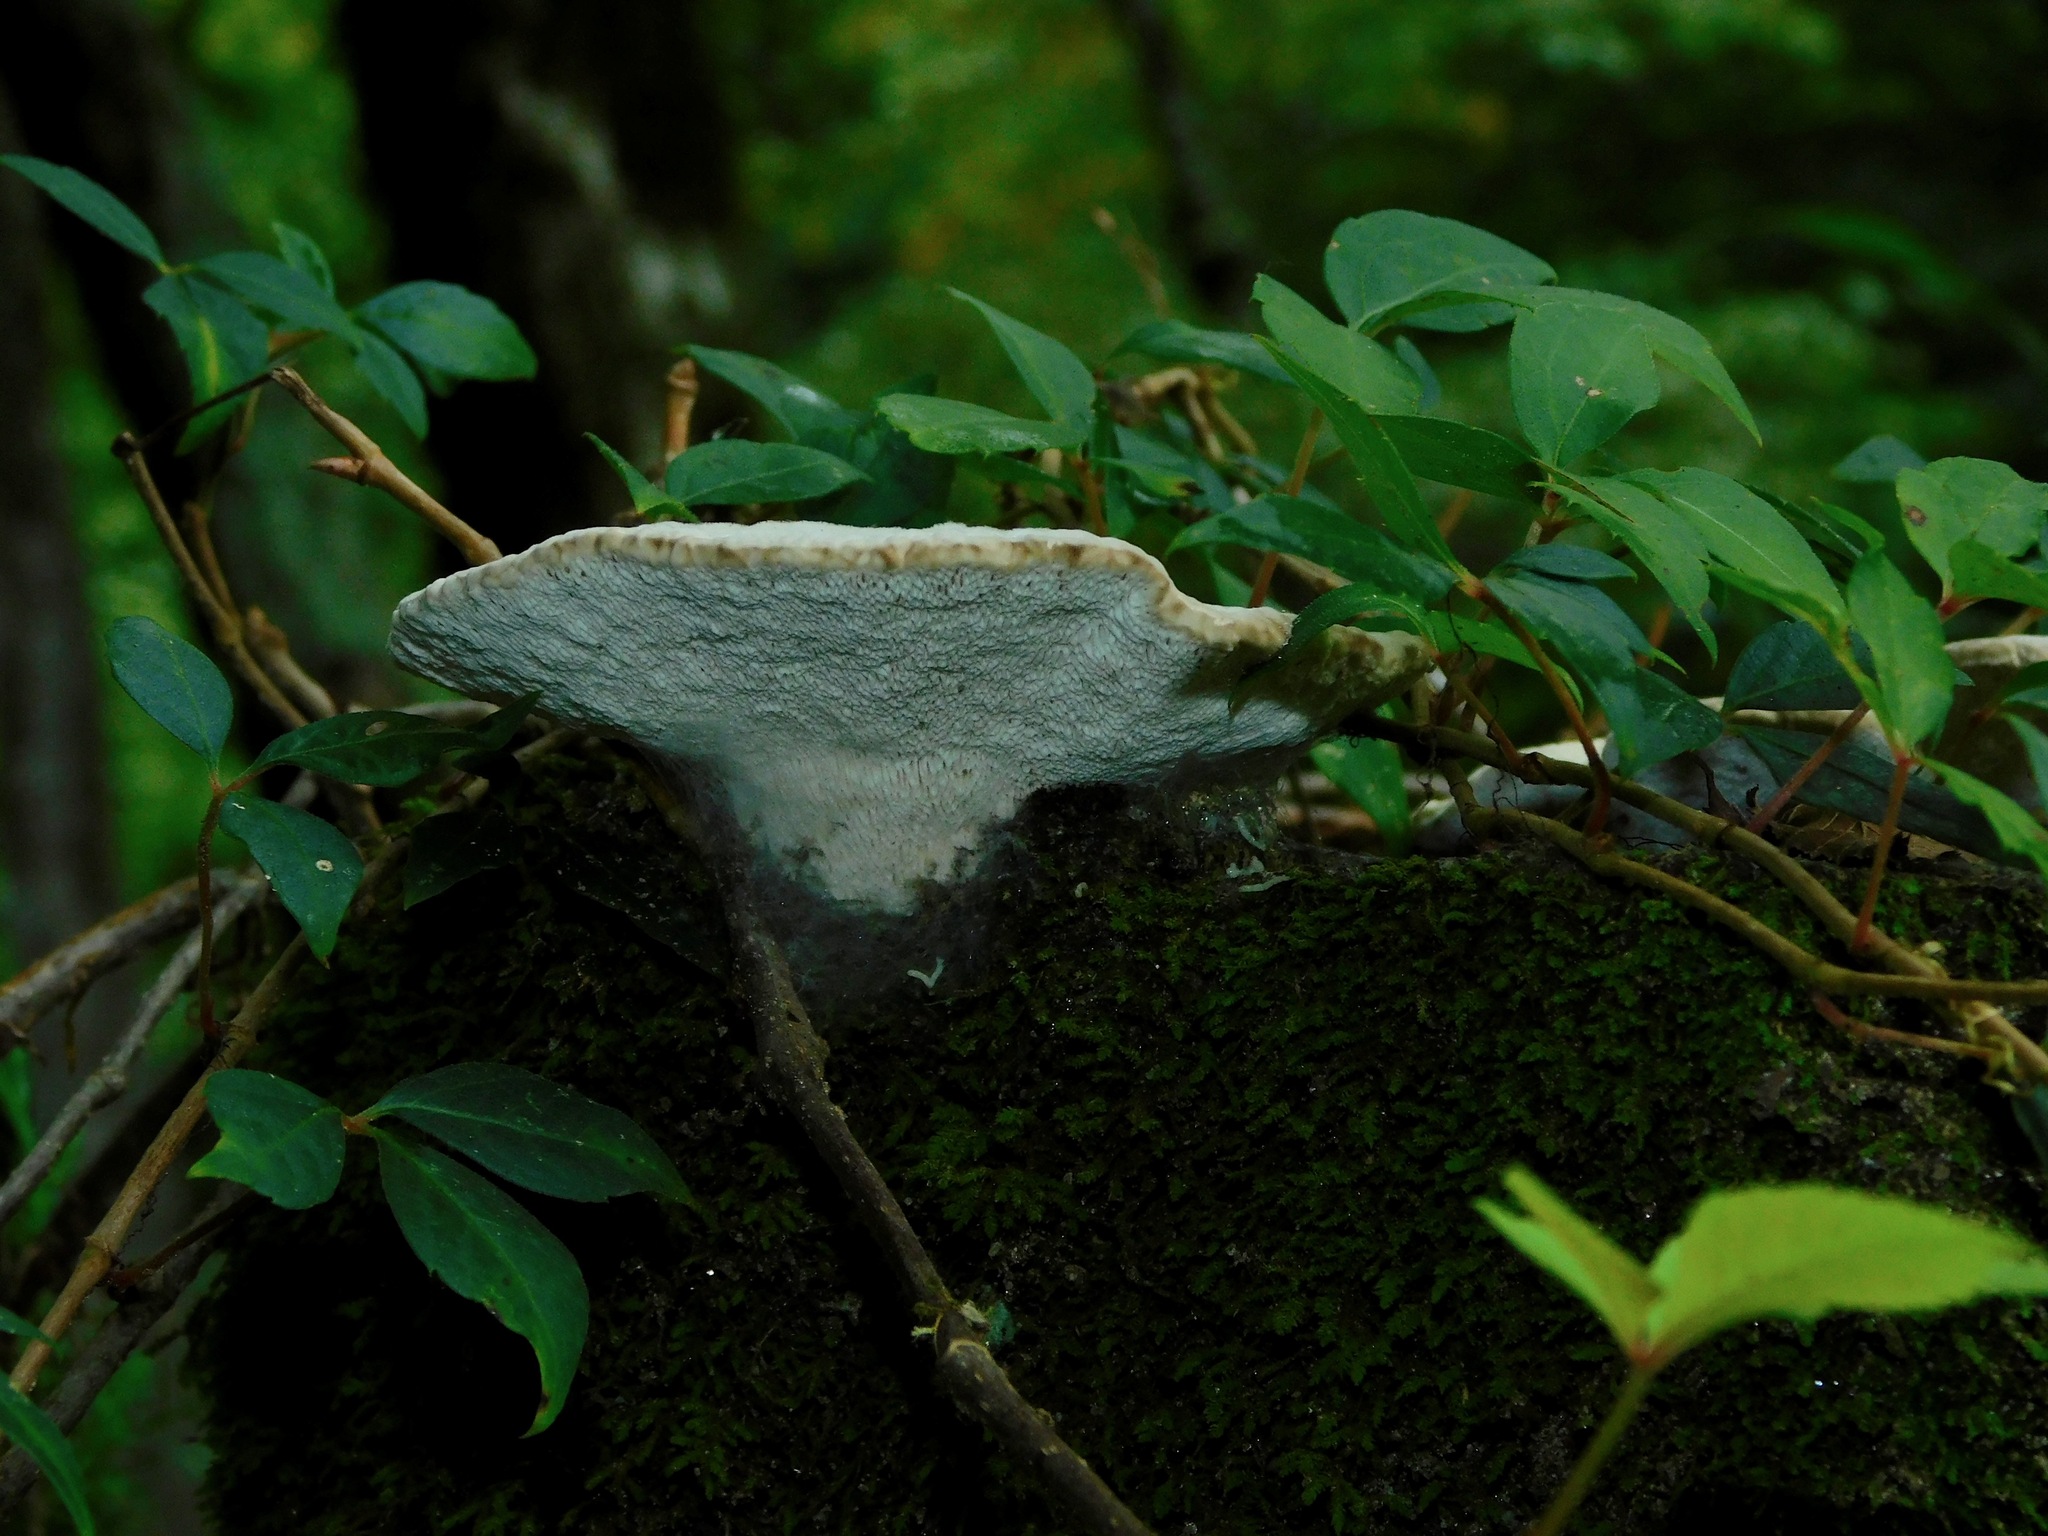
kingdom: Fungi
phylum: Basidiomycota
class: Agaricomycetes
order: Polyporales
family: Polyporaceae
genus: Trametes
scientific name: Trametes elegans
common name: White maze polypore
